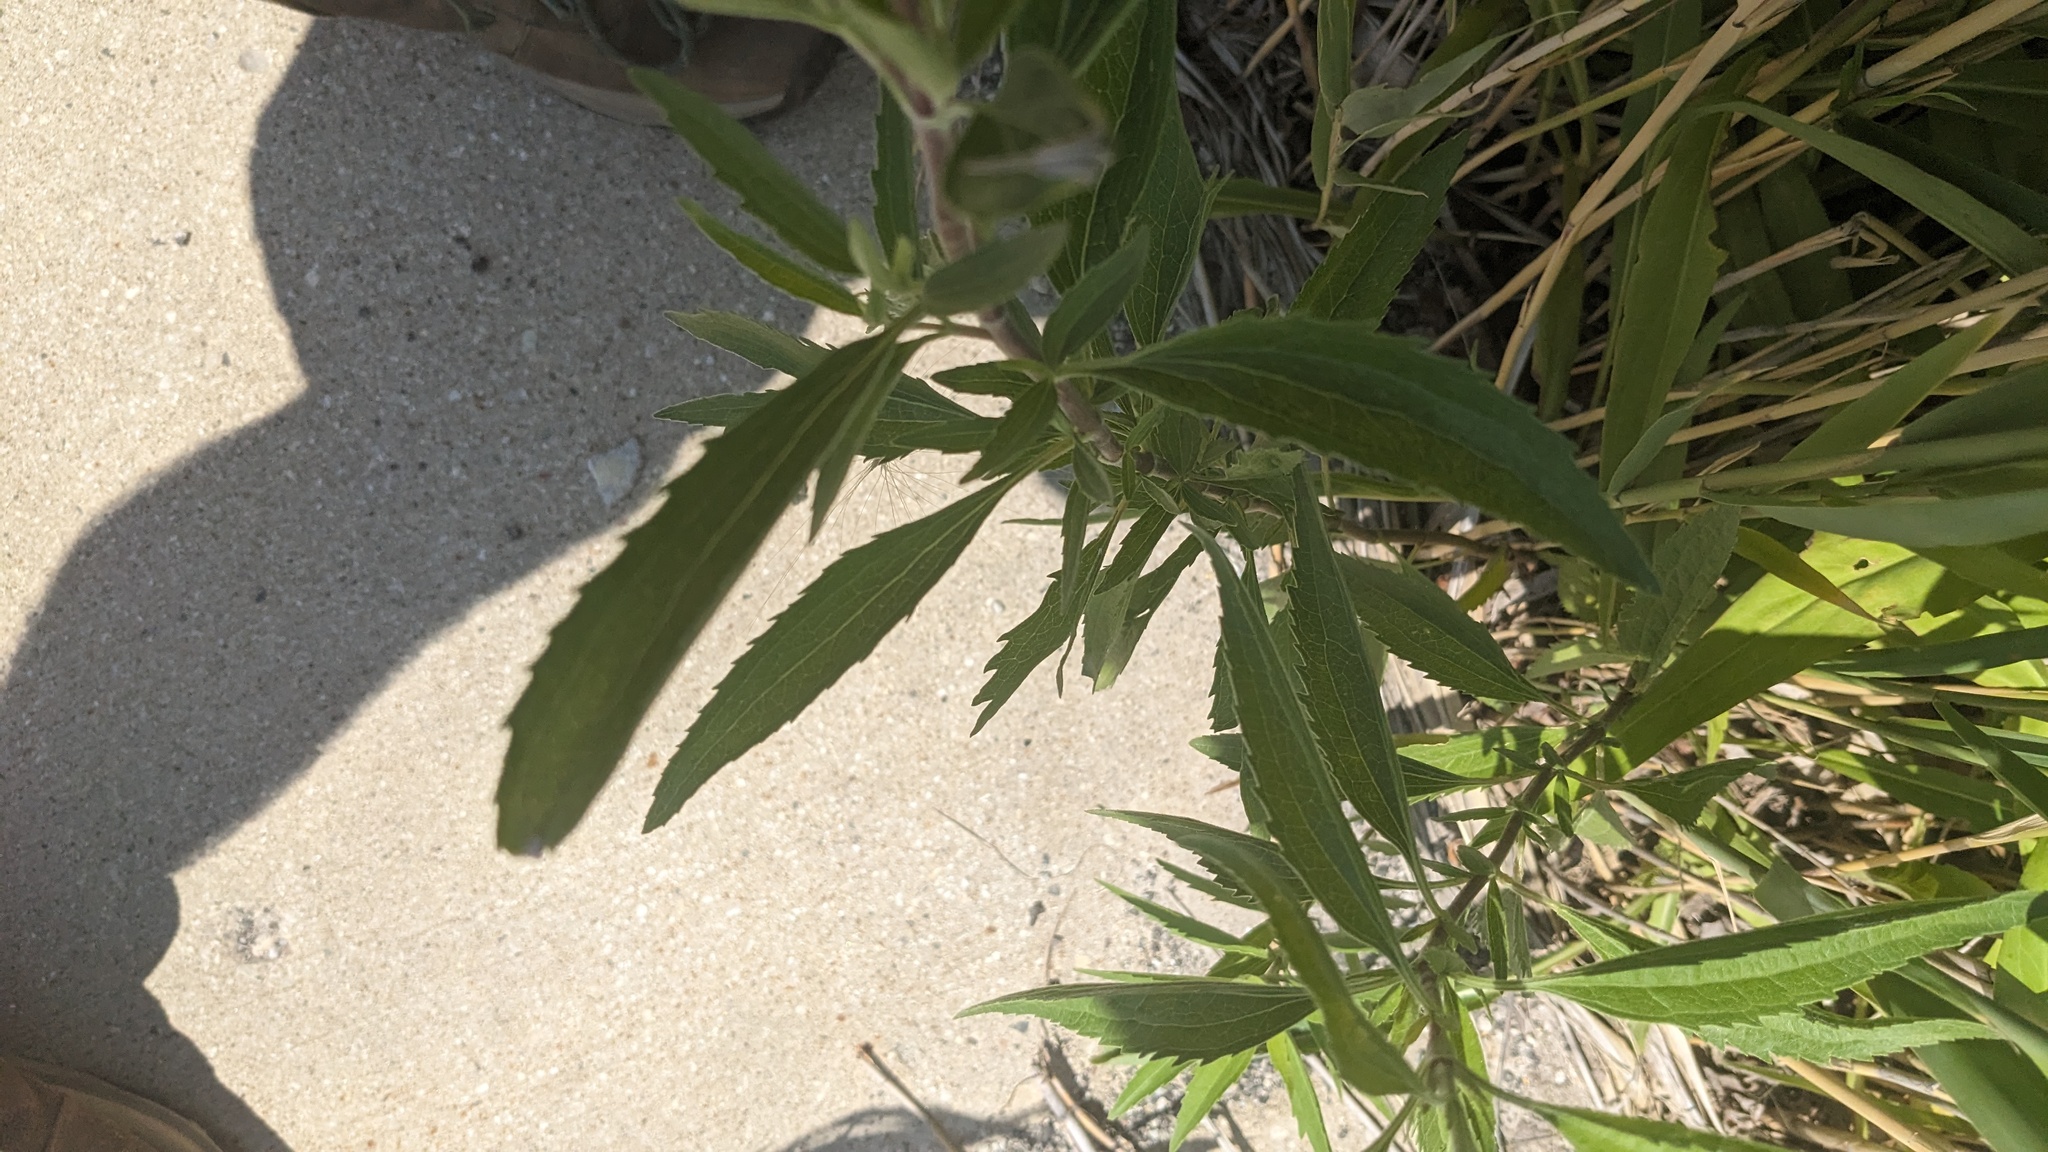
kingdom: Plantae
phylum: Tracheophyta
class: Magnoliopsida
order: Asterales
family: Asteraceae
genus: Eupatorium
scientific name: Eupatorium serotinum
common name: Late boneset
